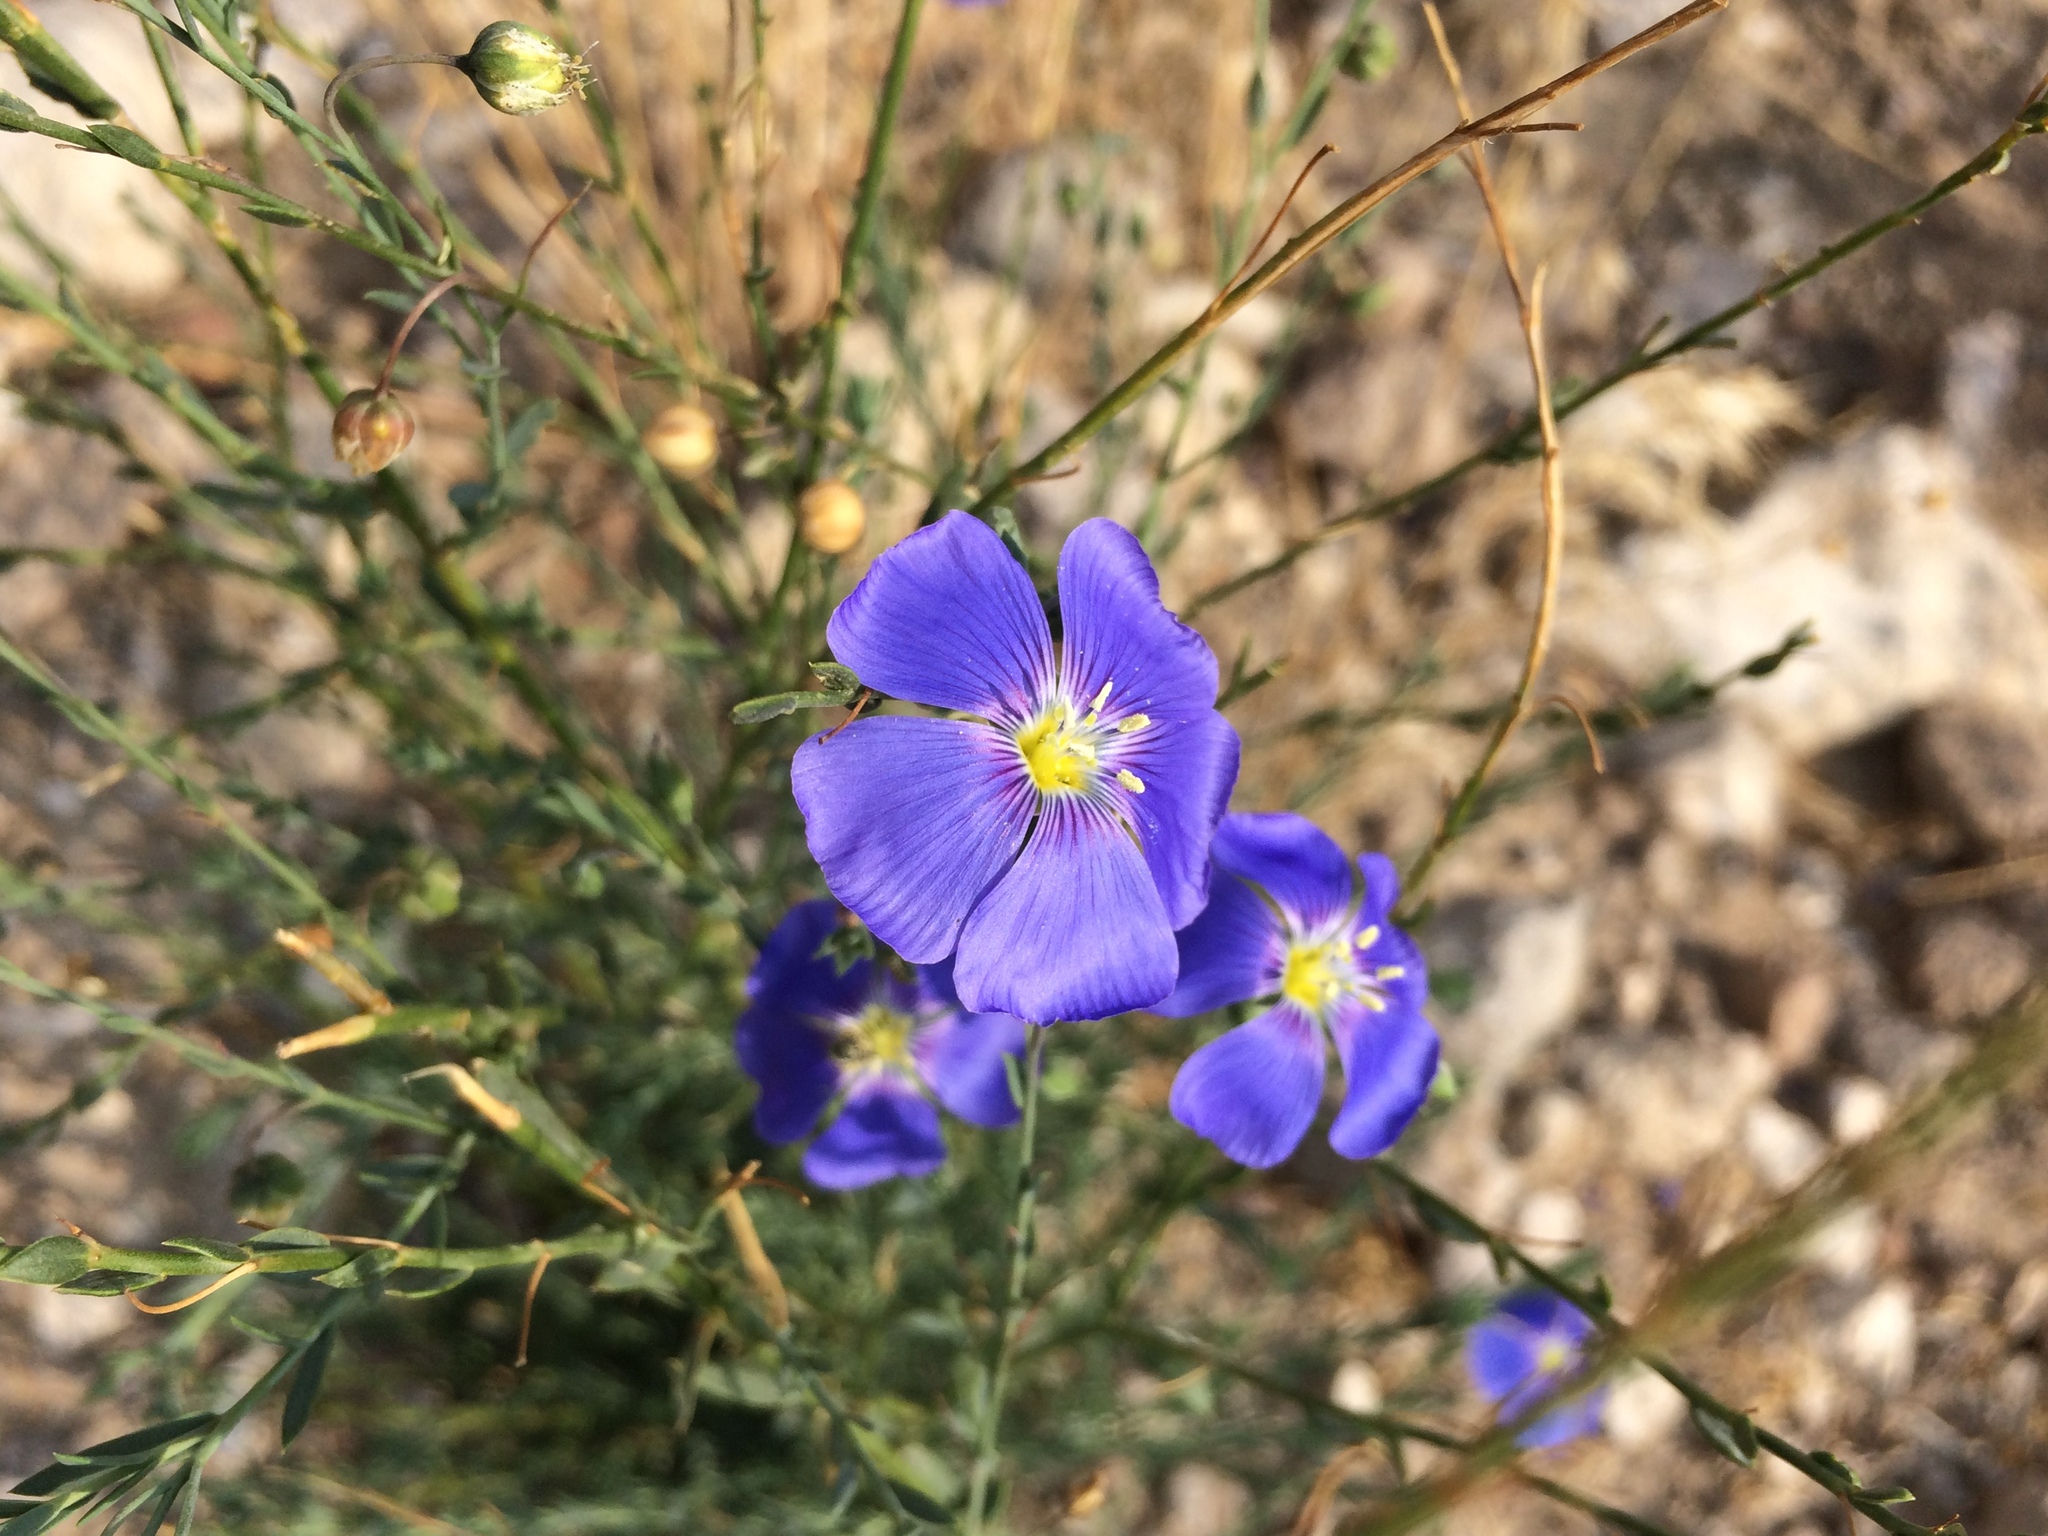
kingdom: Plantae
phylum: Tracheophyta
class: Magnoliopsida
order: Malpighiales
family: Linaceae
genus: Linum
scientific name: Linum perenne
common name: Blue flax
